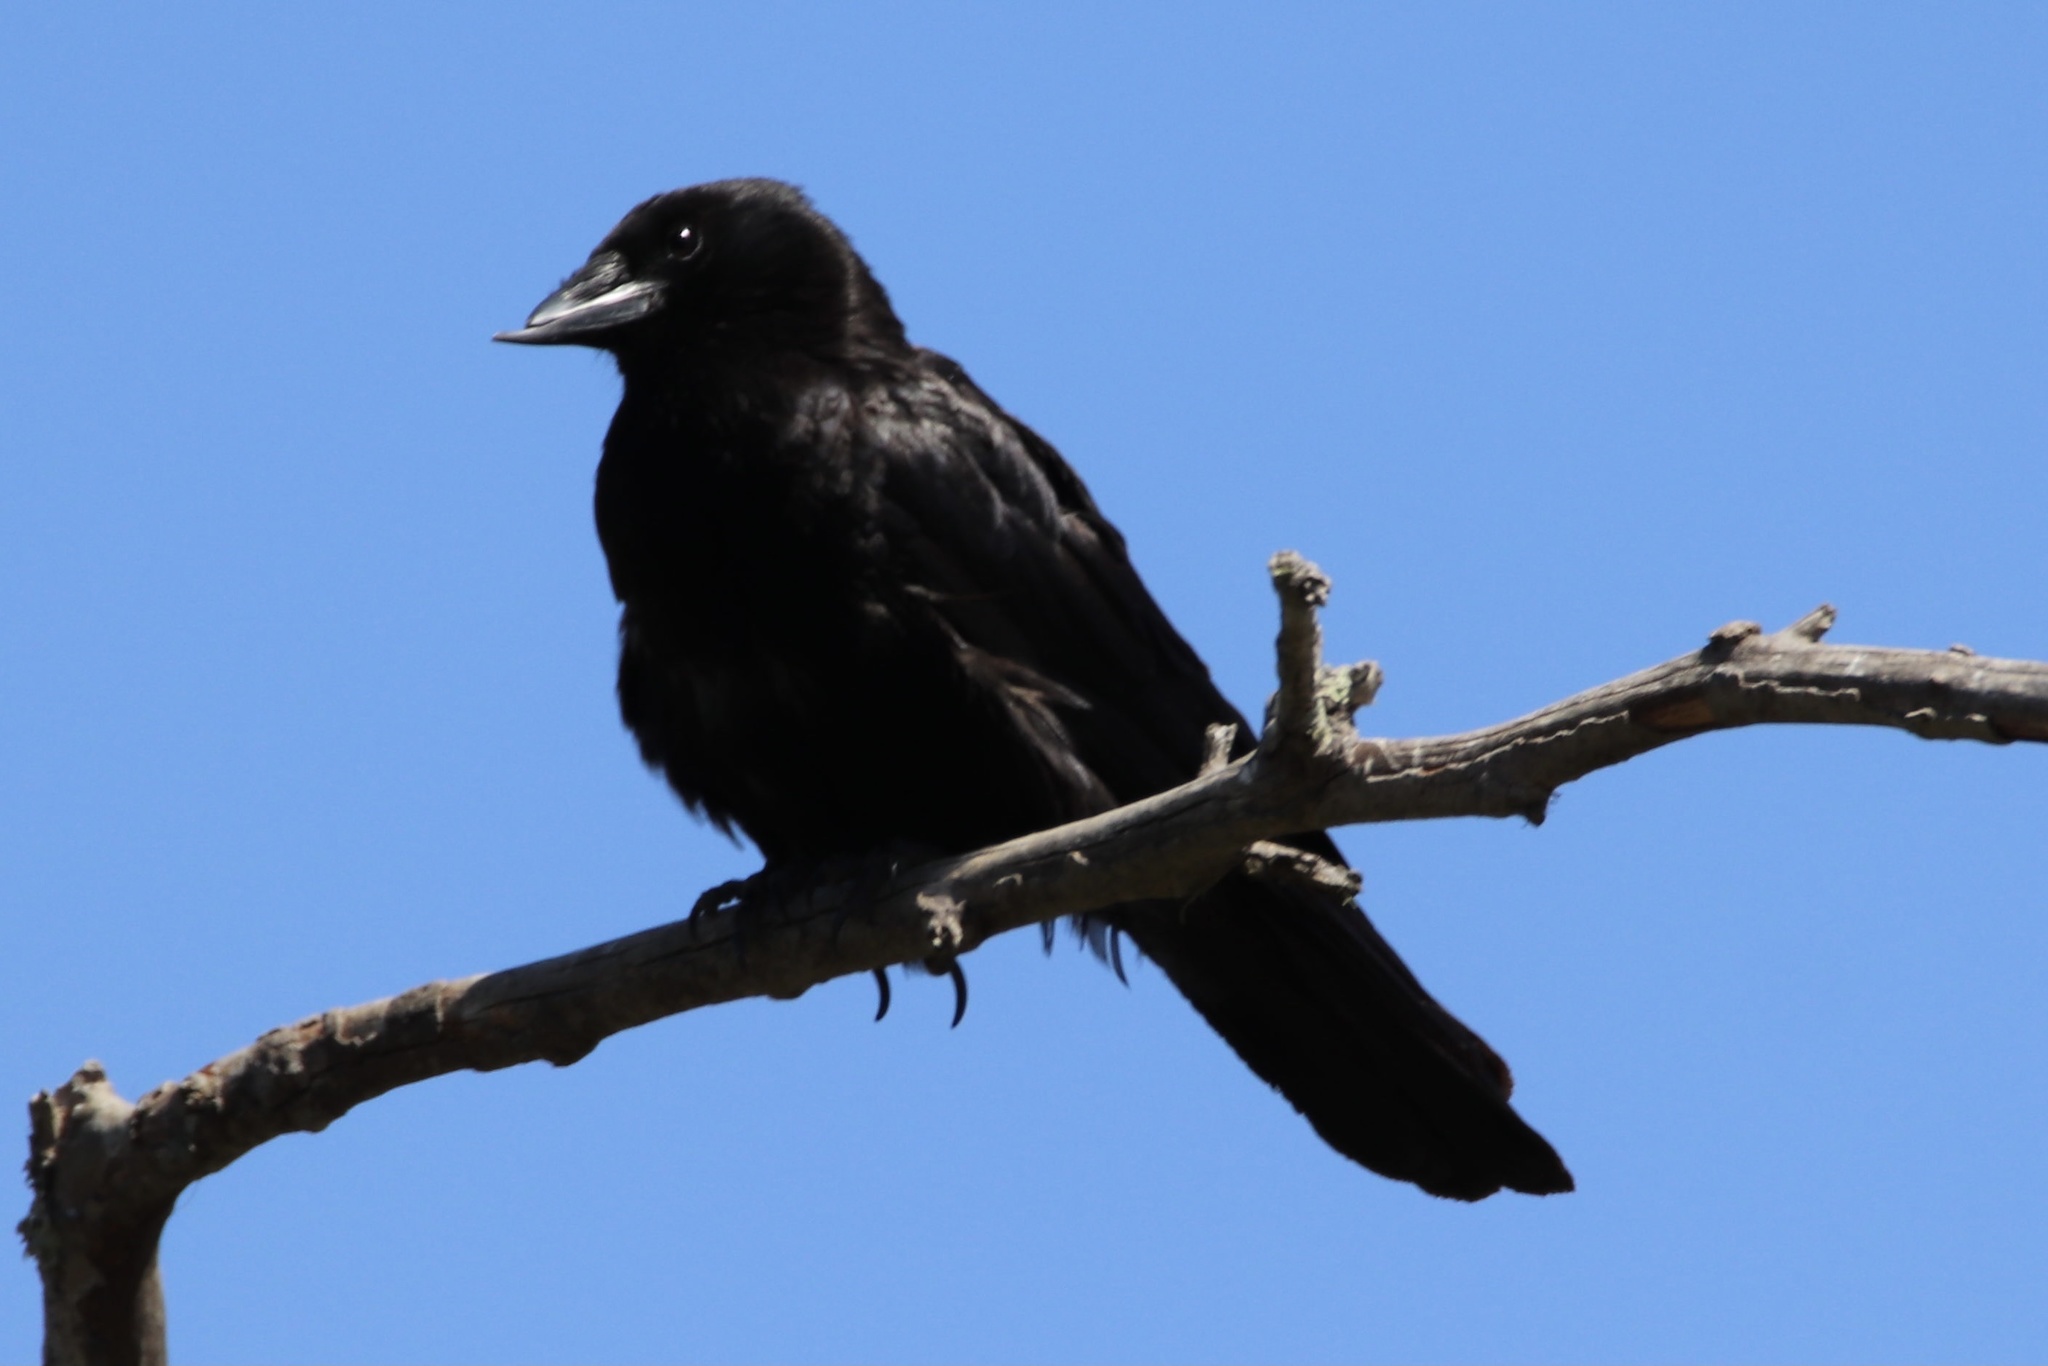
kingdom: Animalia
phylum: Chordata
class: Aves
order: Passeriformes
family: Corvidae
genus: Corvus
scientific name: Corvus brachyrhynchos
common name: American crow
